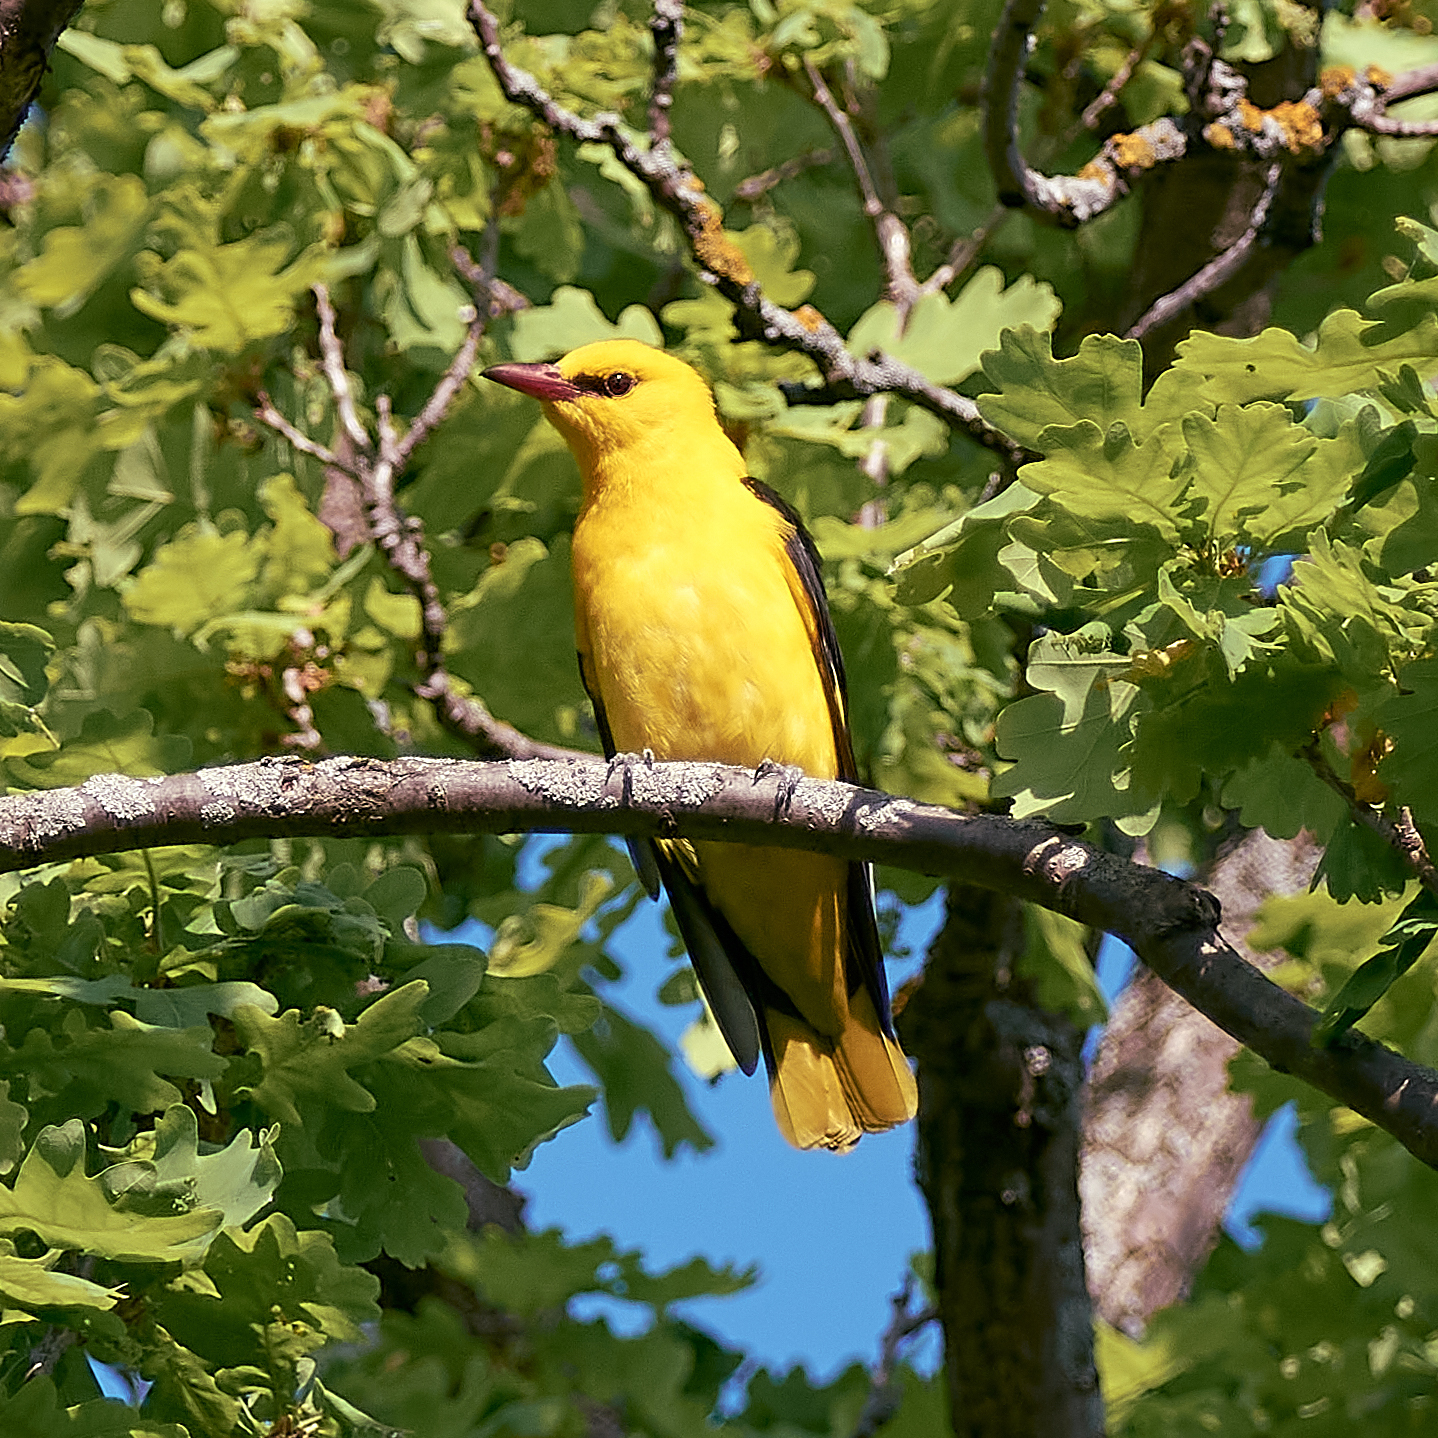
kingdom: Animalia
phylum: Chordata
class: Aves
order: Passeriformes
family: Oriolidae
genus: Oriolus
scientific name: Oriolus oriolus
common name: Eurasian golden oriole
